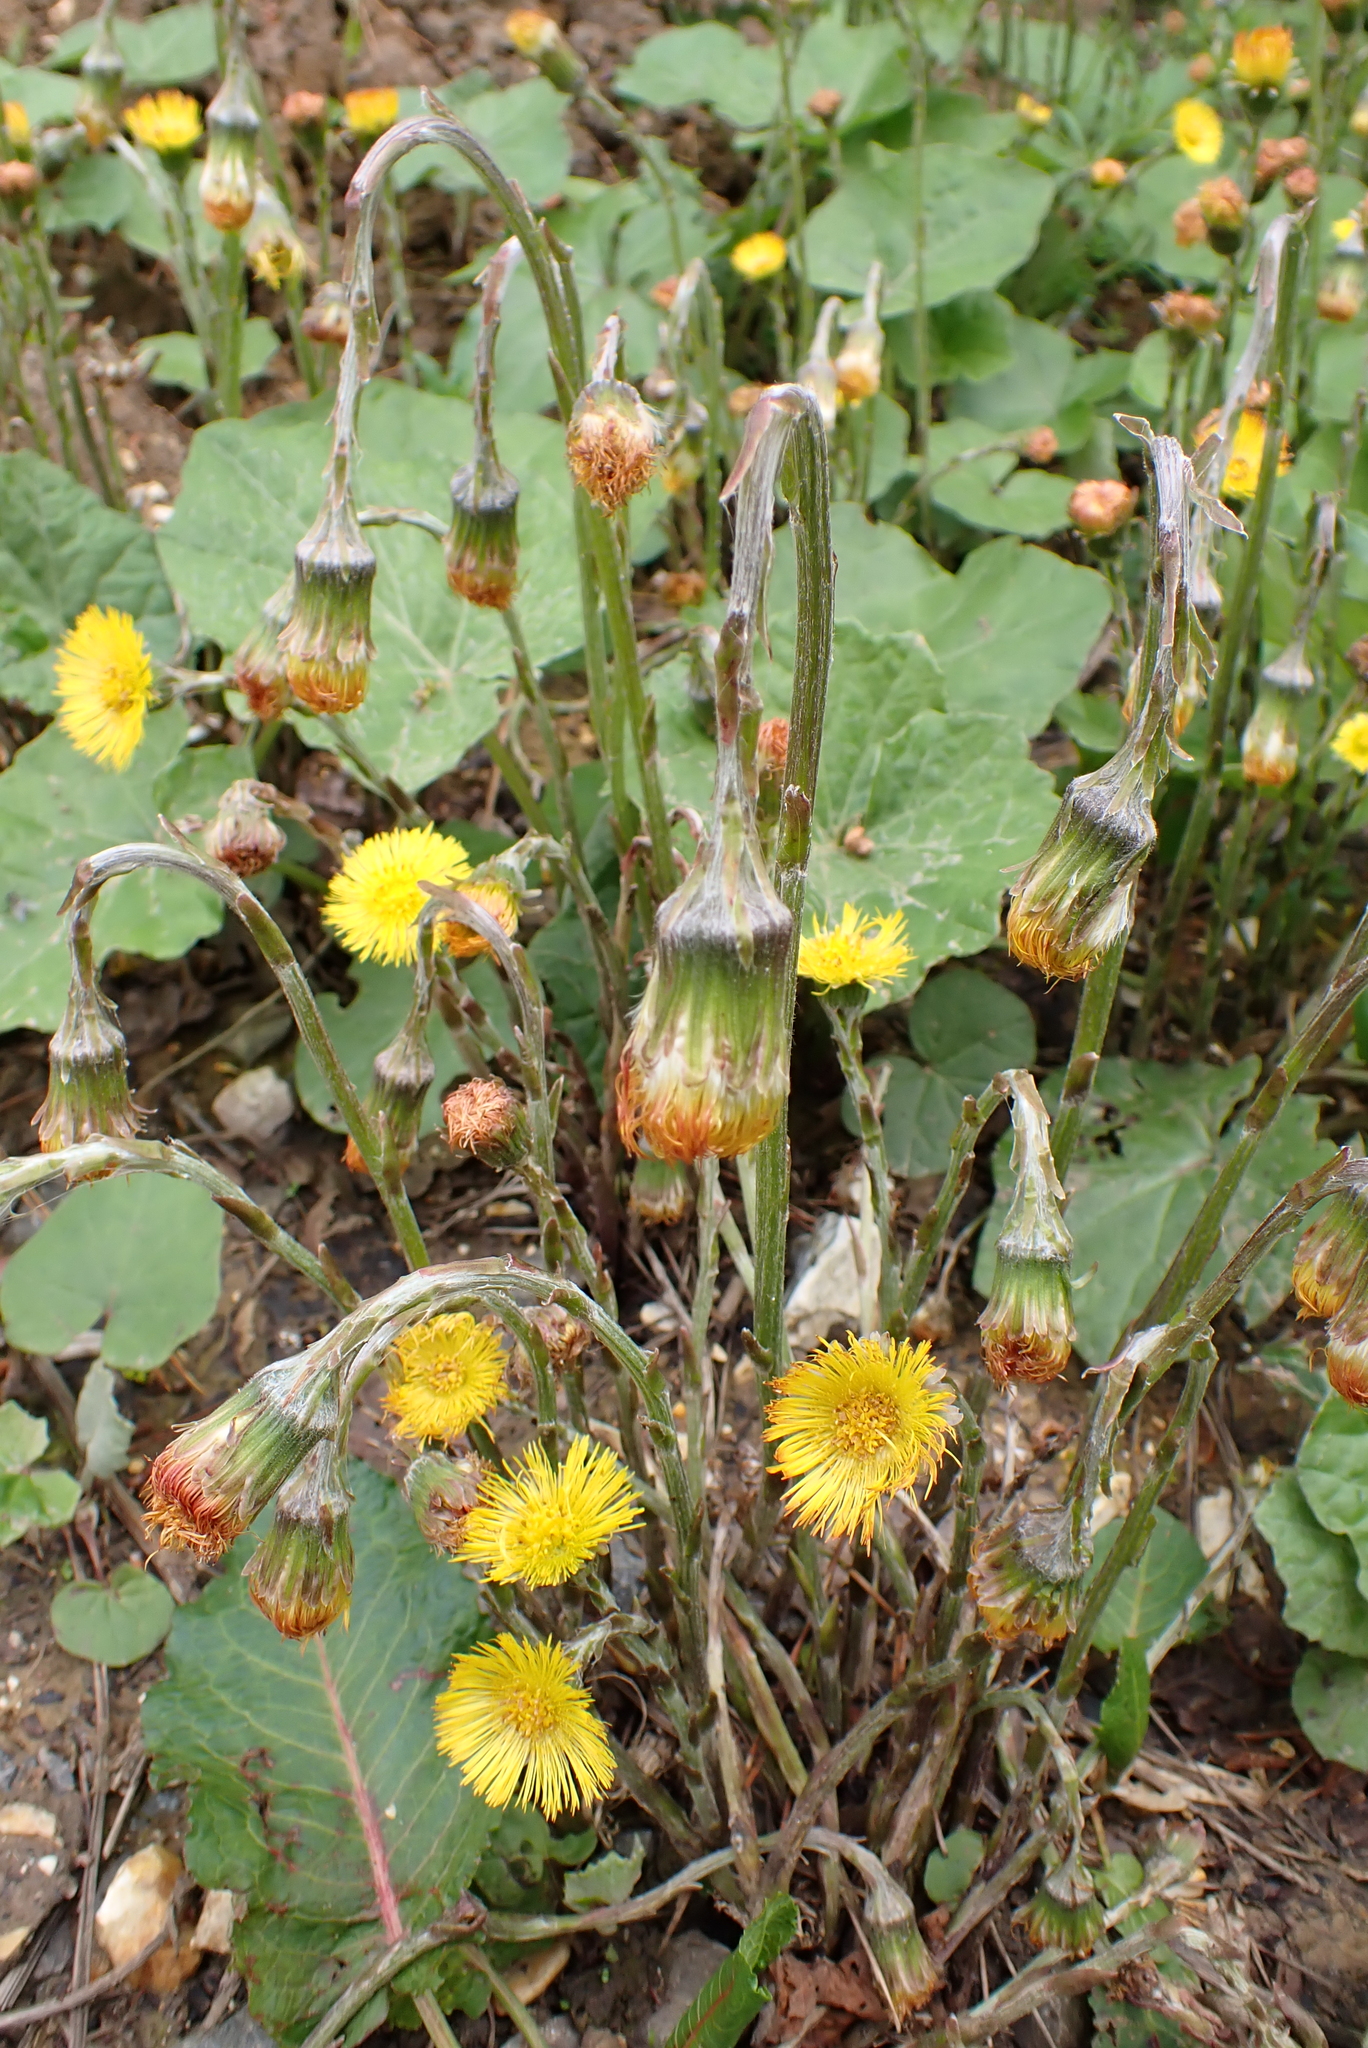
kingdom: Plantae
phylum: Tracheophyta
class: Magnoliopsida
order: Asterales
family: Asteraceae
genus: Tussilago
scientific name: Tussilago farfara
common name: Coltsfoot
